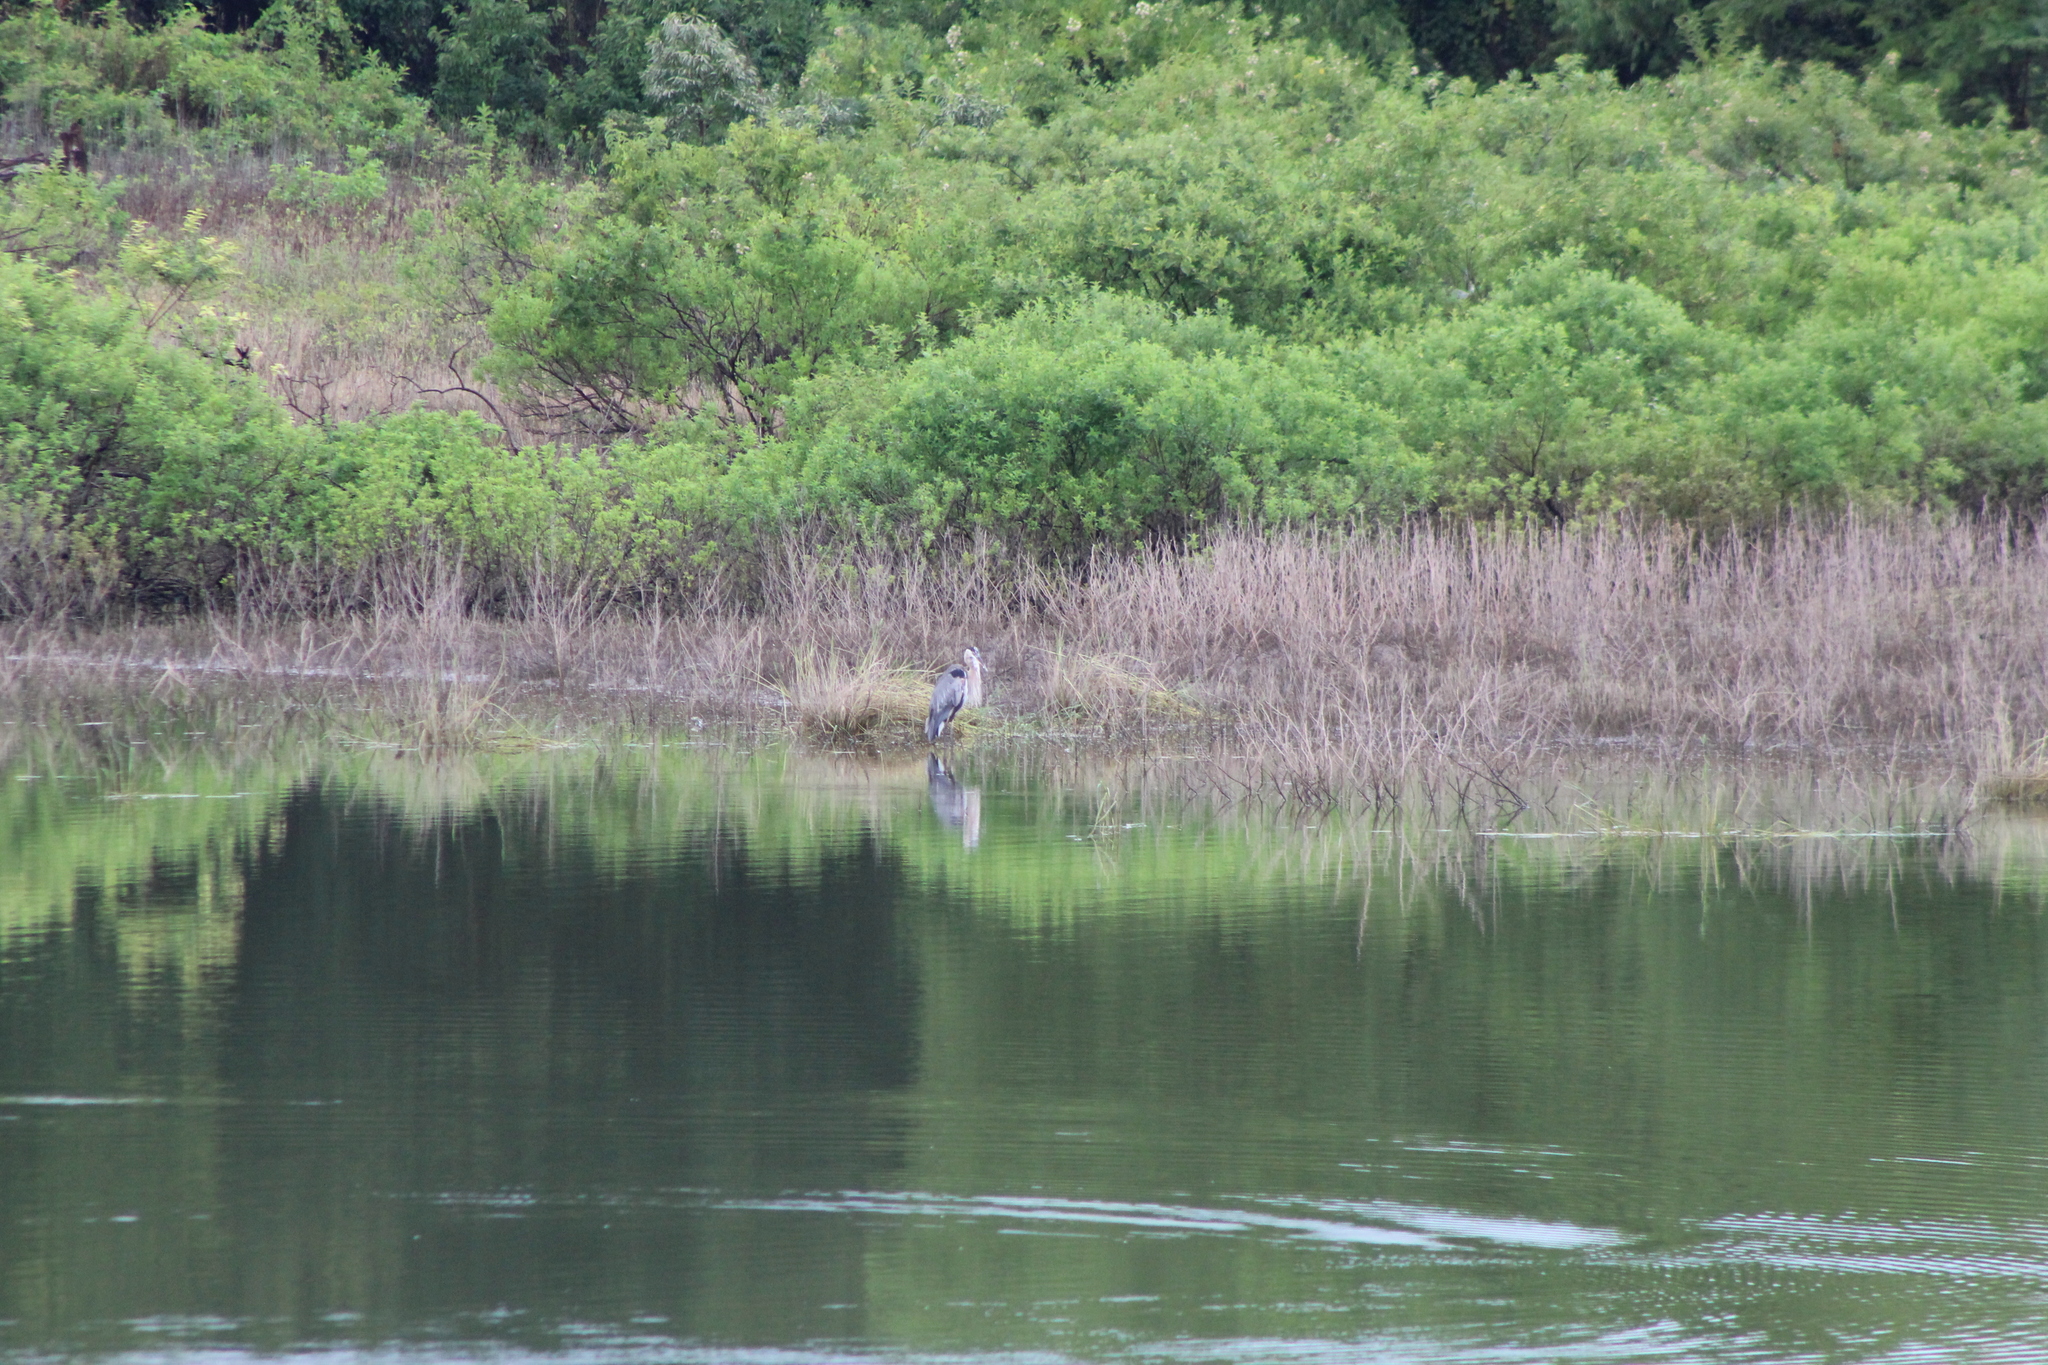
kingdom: Animalia
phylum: Chordata
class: Aves
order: Pelecaniformes
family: Ardeidae
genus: Ardea
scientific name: Ardea herodias
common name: Great blue heron
